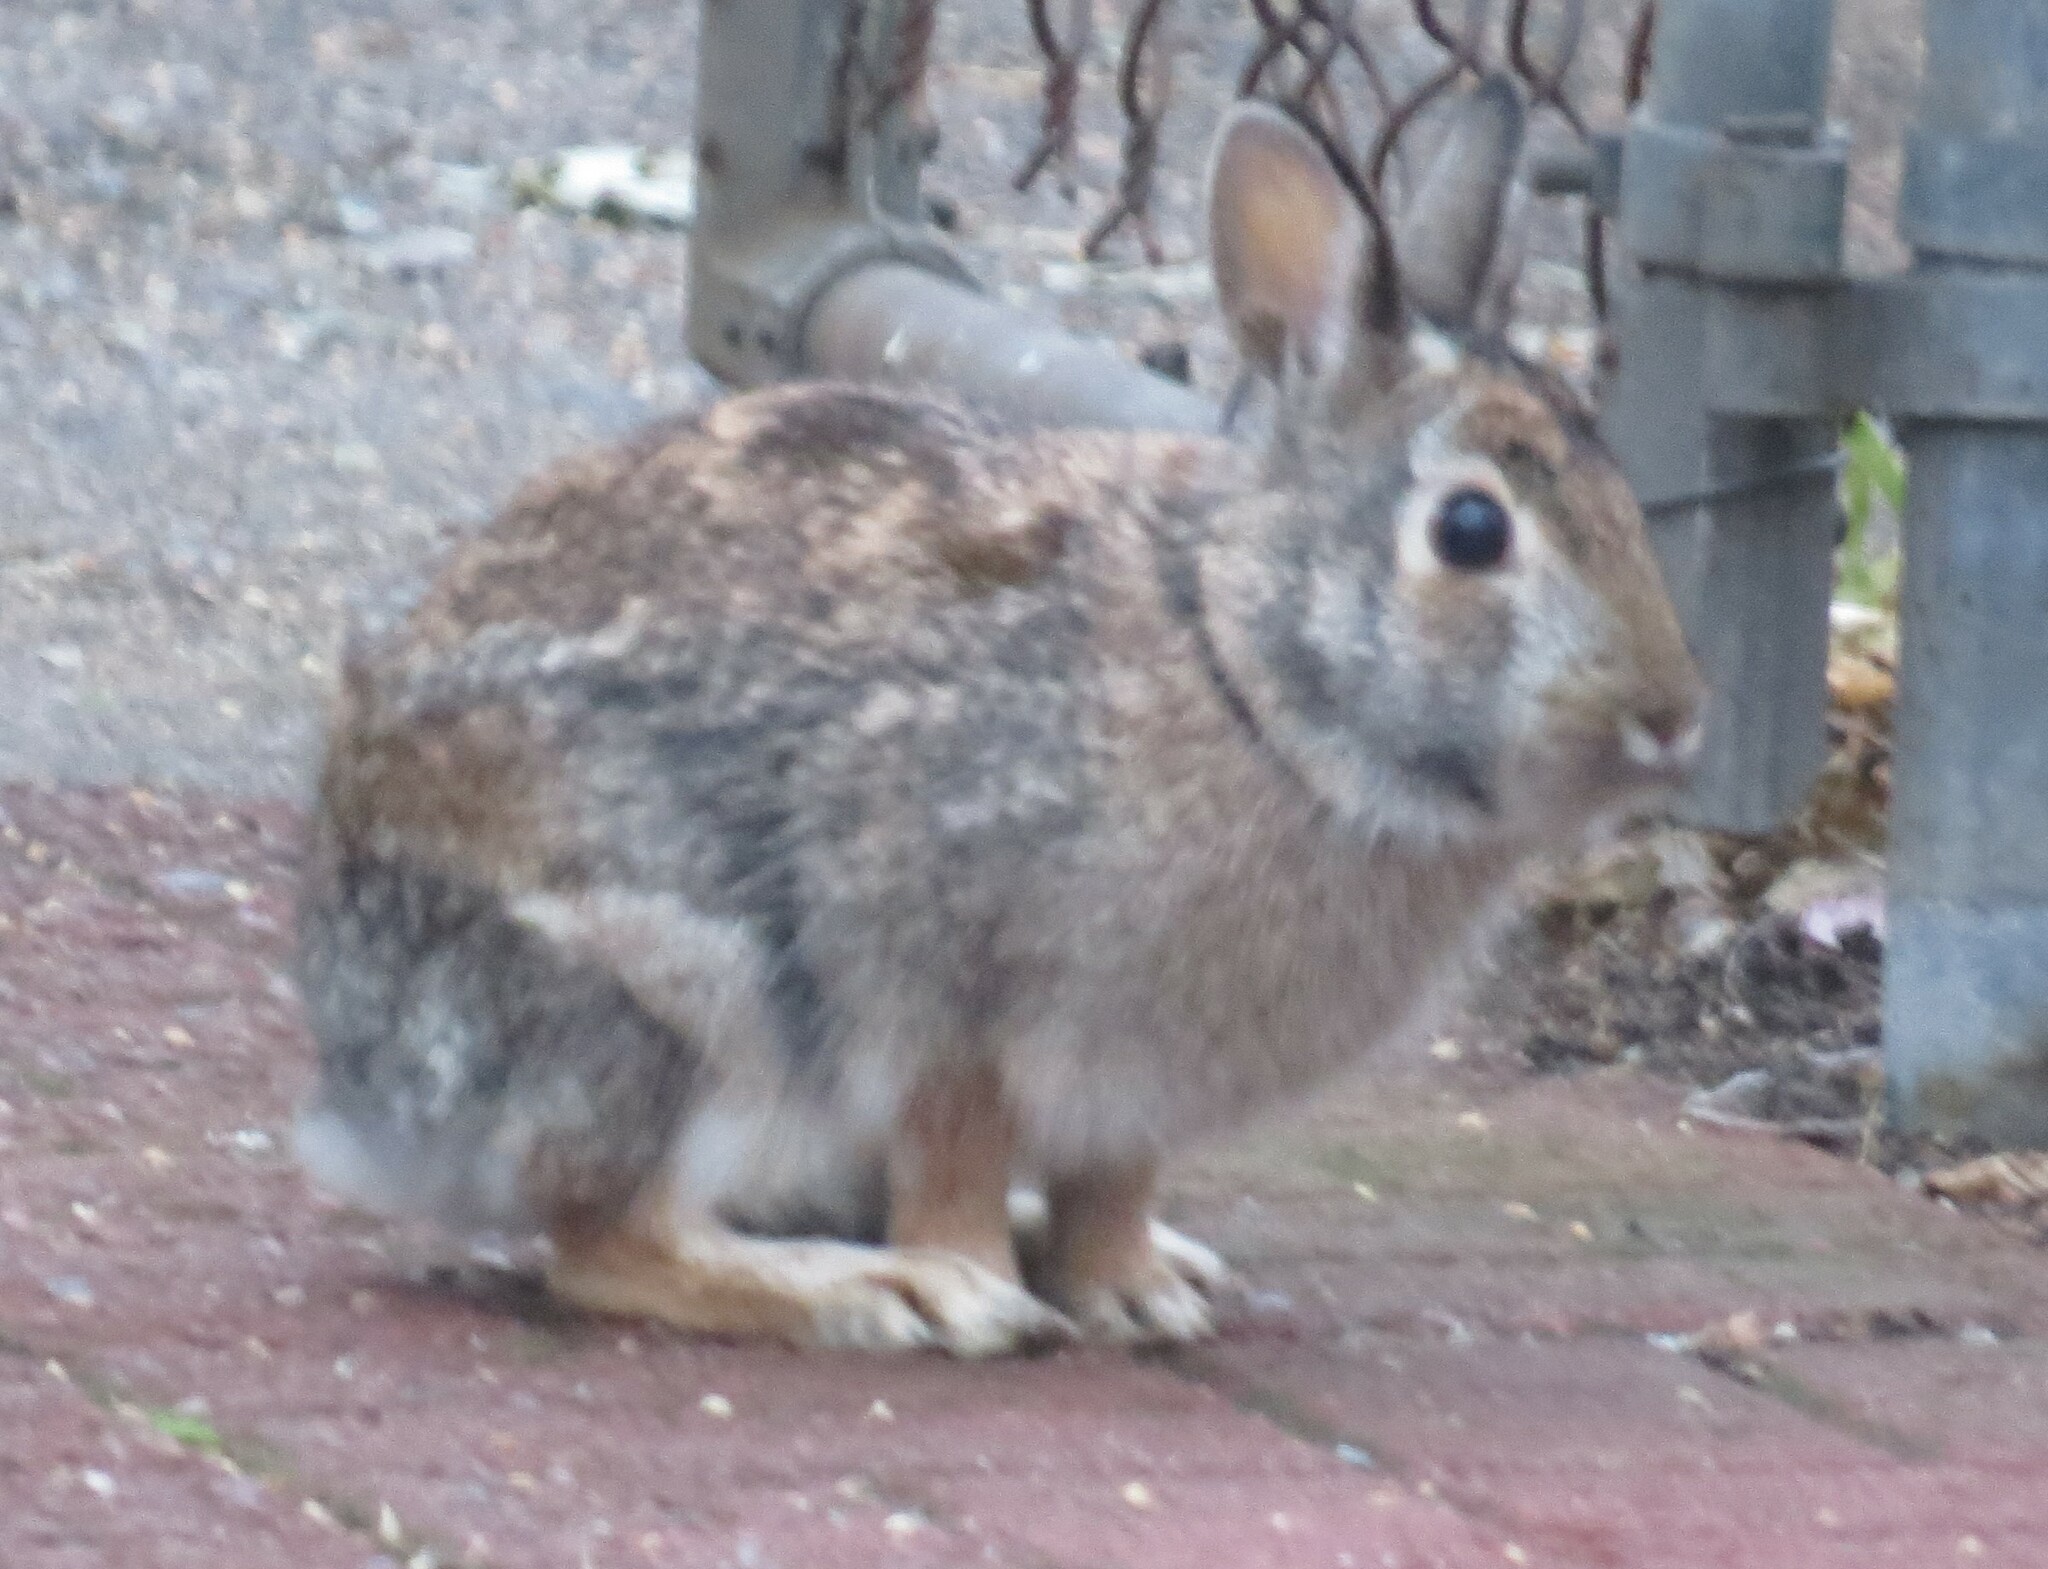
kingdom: Animalia
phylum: Chordata
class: Mammalia
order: Lagomorpha
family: Leporidae
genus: Sylvilagus
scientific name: Sylvilagus floridanus
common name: Eastern cottontail
